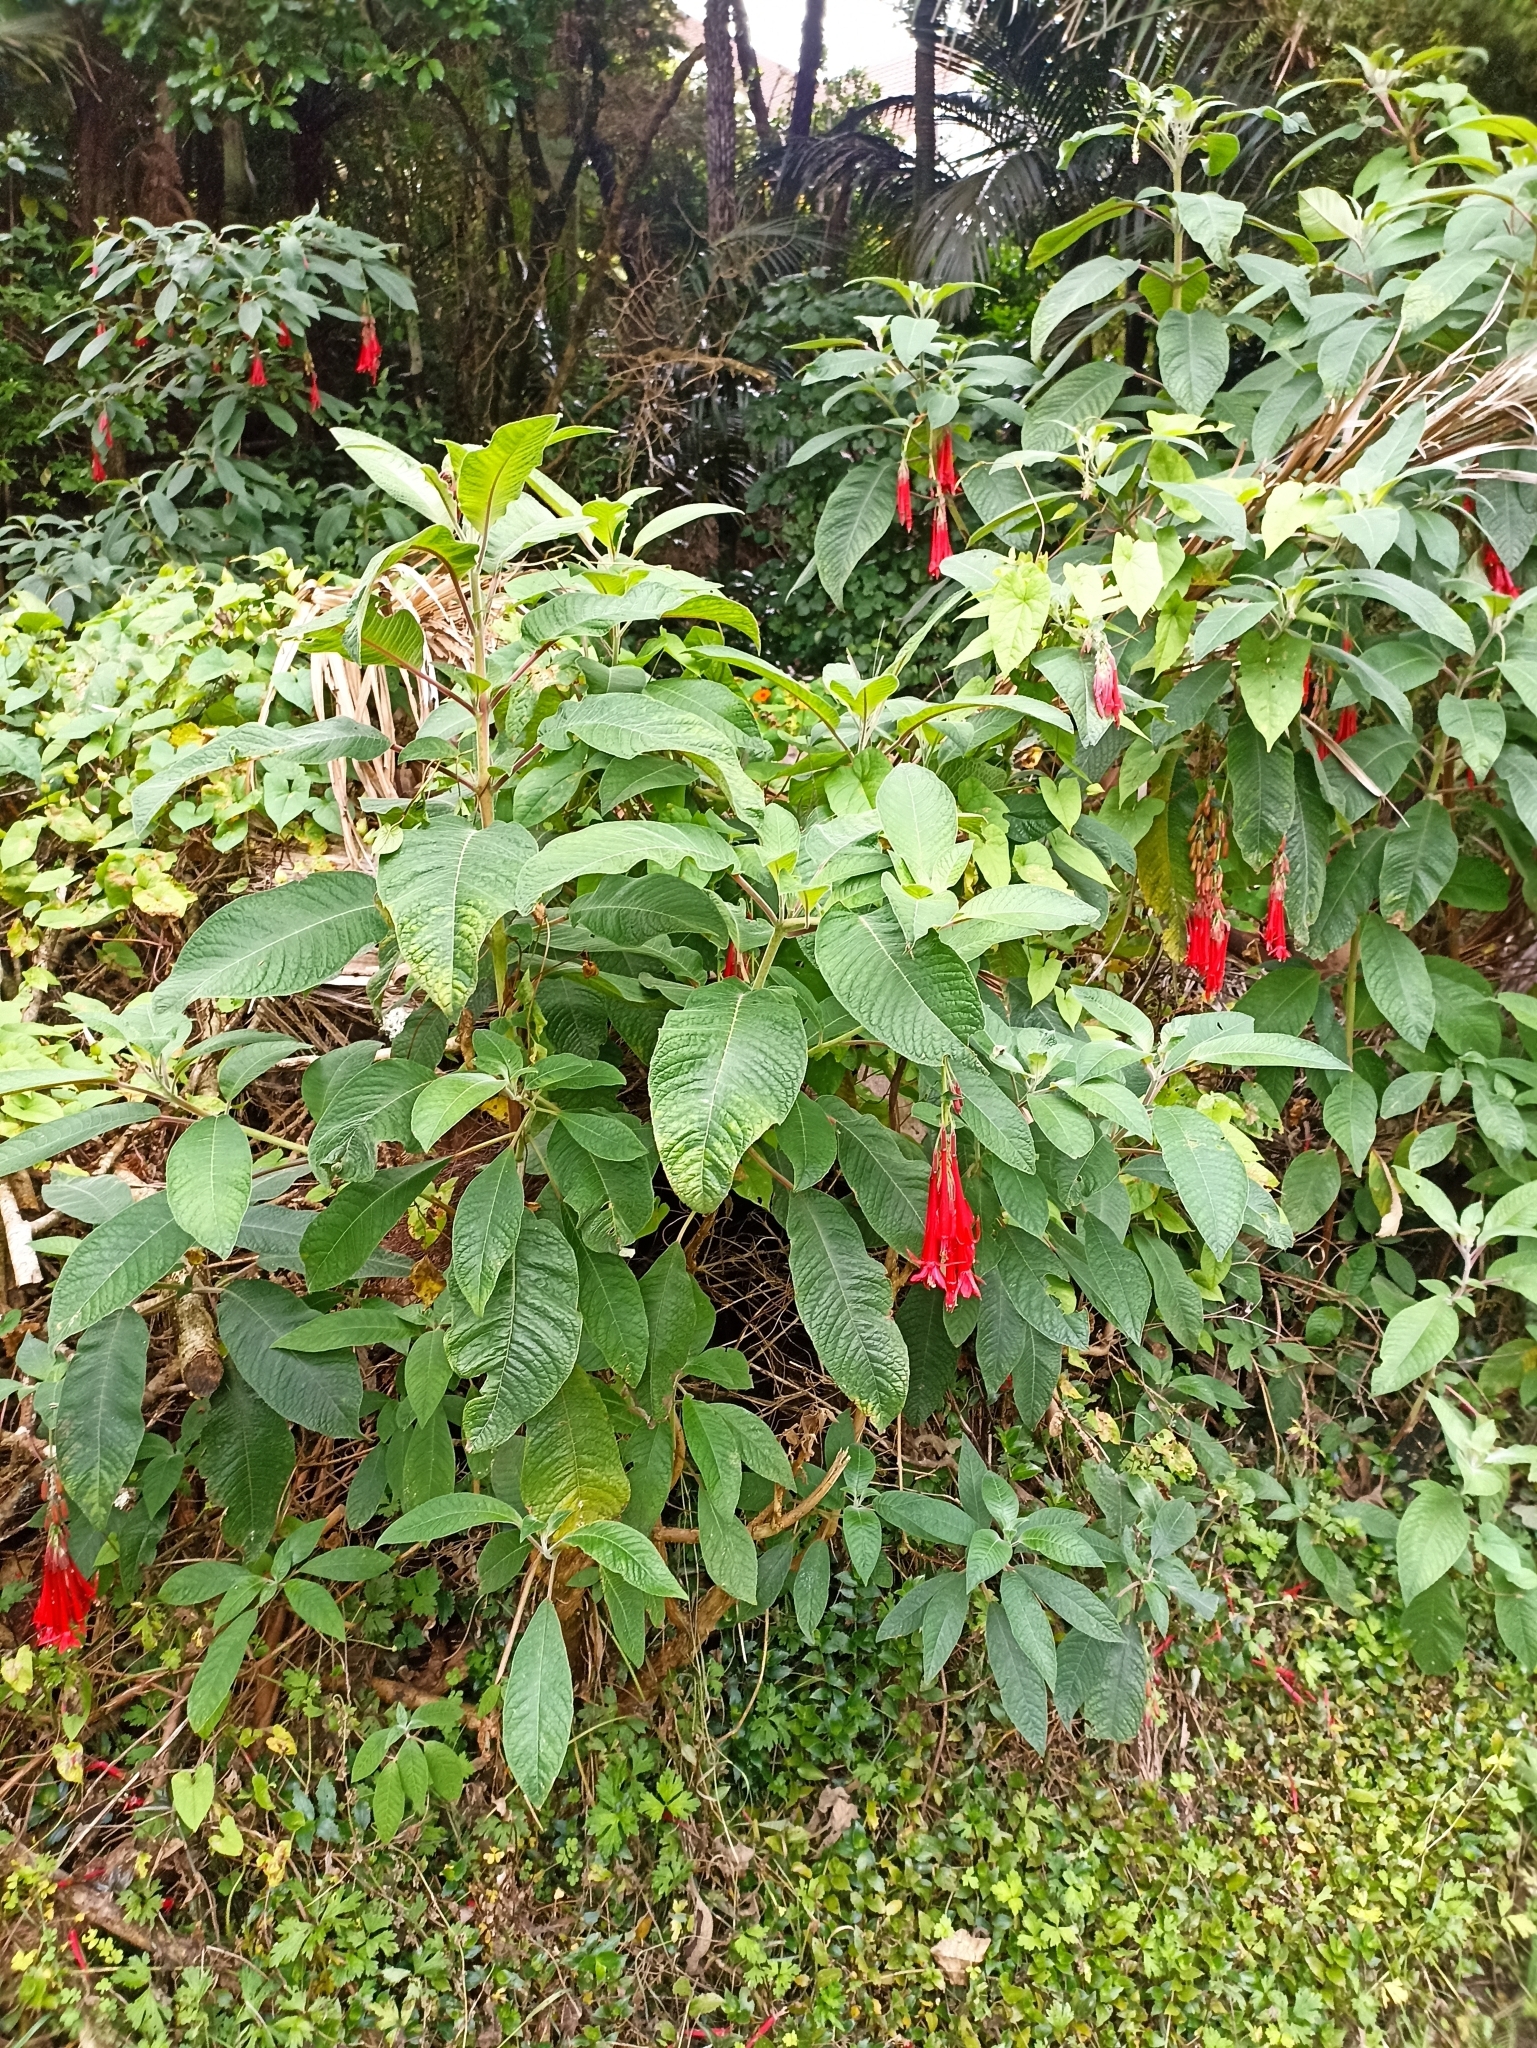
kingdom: Plantae
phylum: Tracheophyta
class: Magnoliopsida
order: Myrtales
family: Onagraceae
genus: Fuchsia
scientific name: Fuchsia boliviana
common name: Bolivian fuchsia
